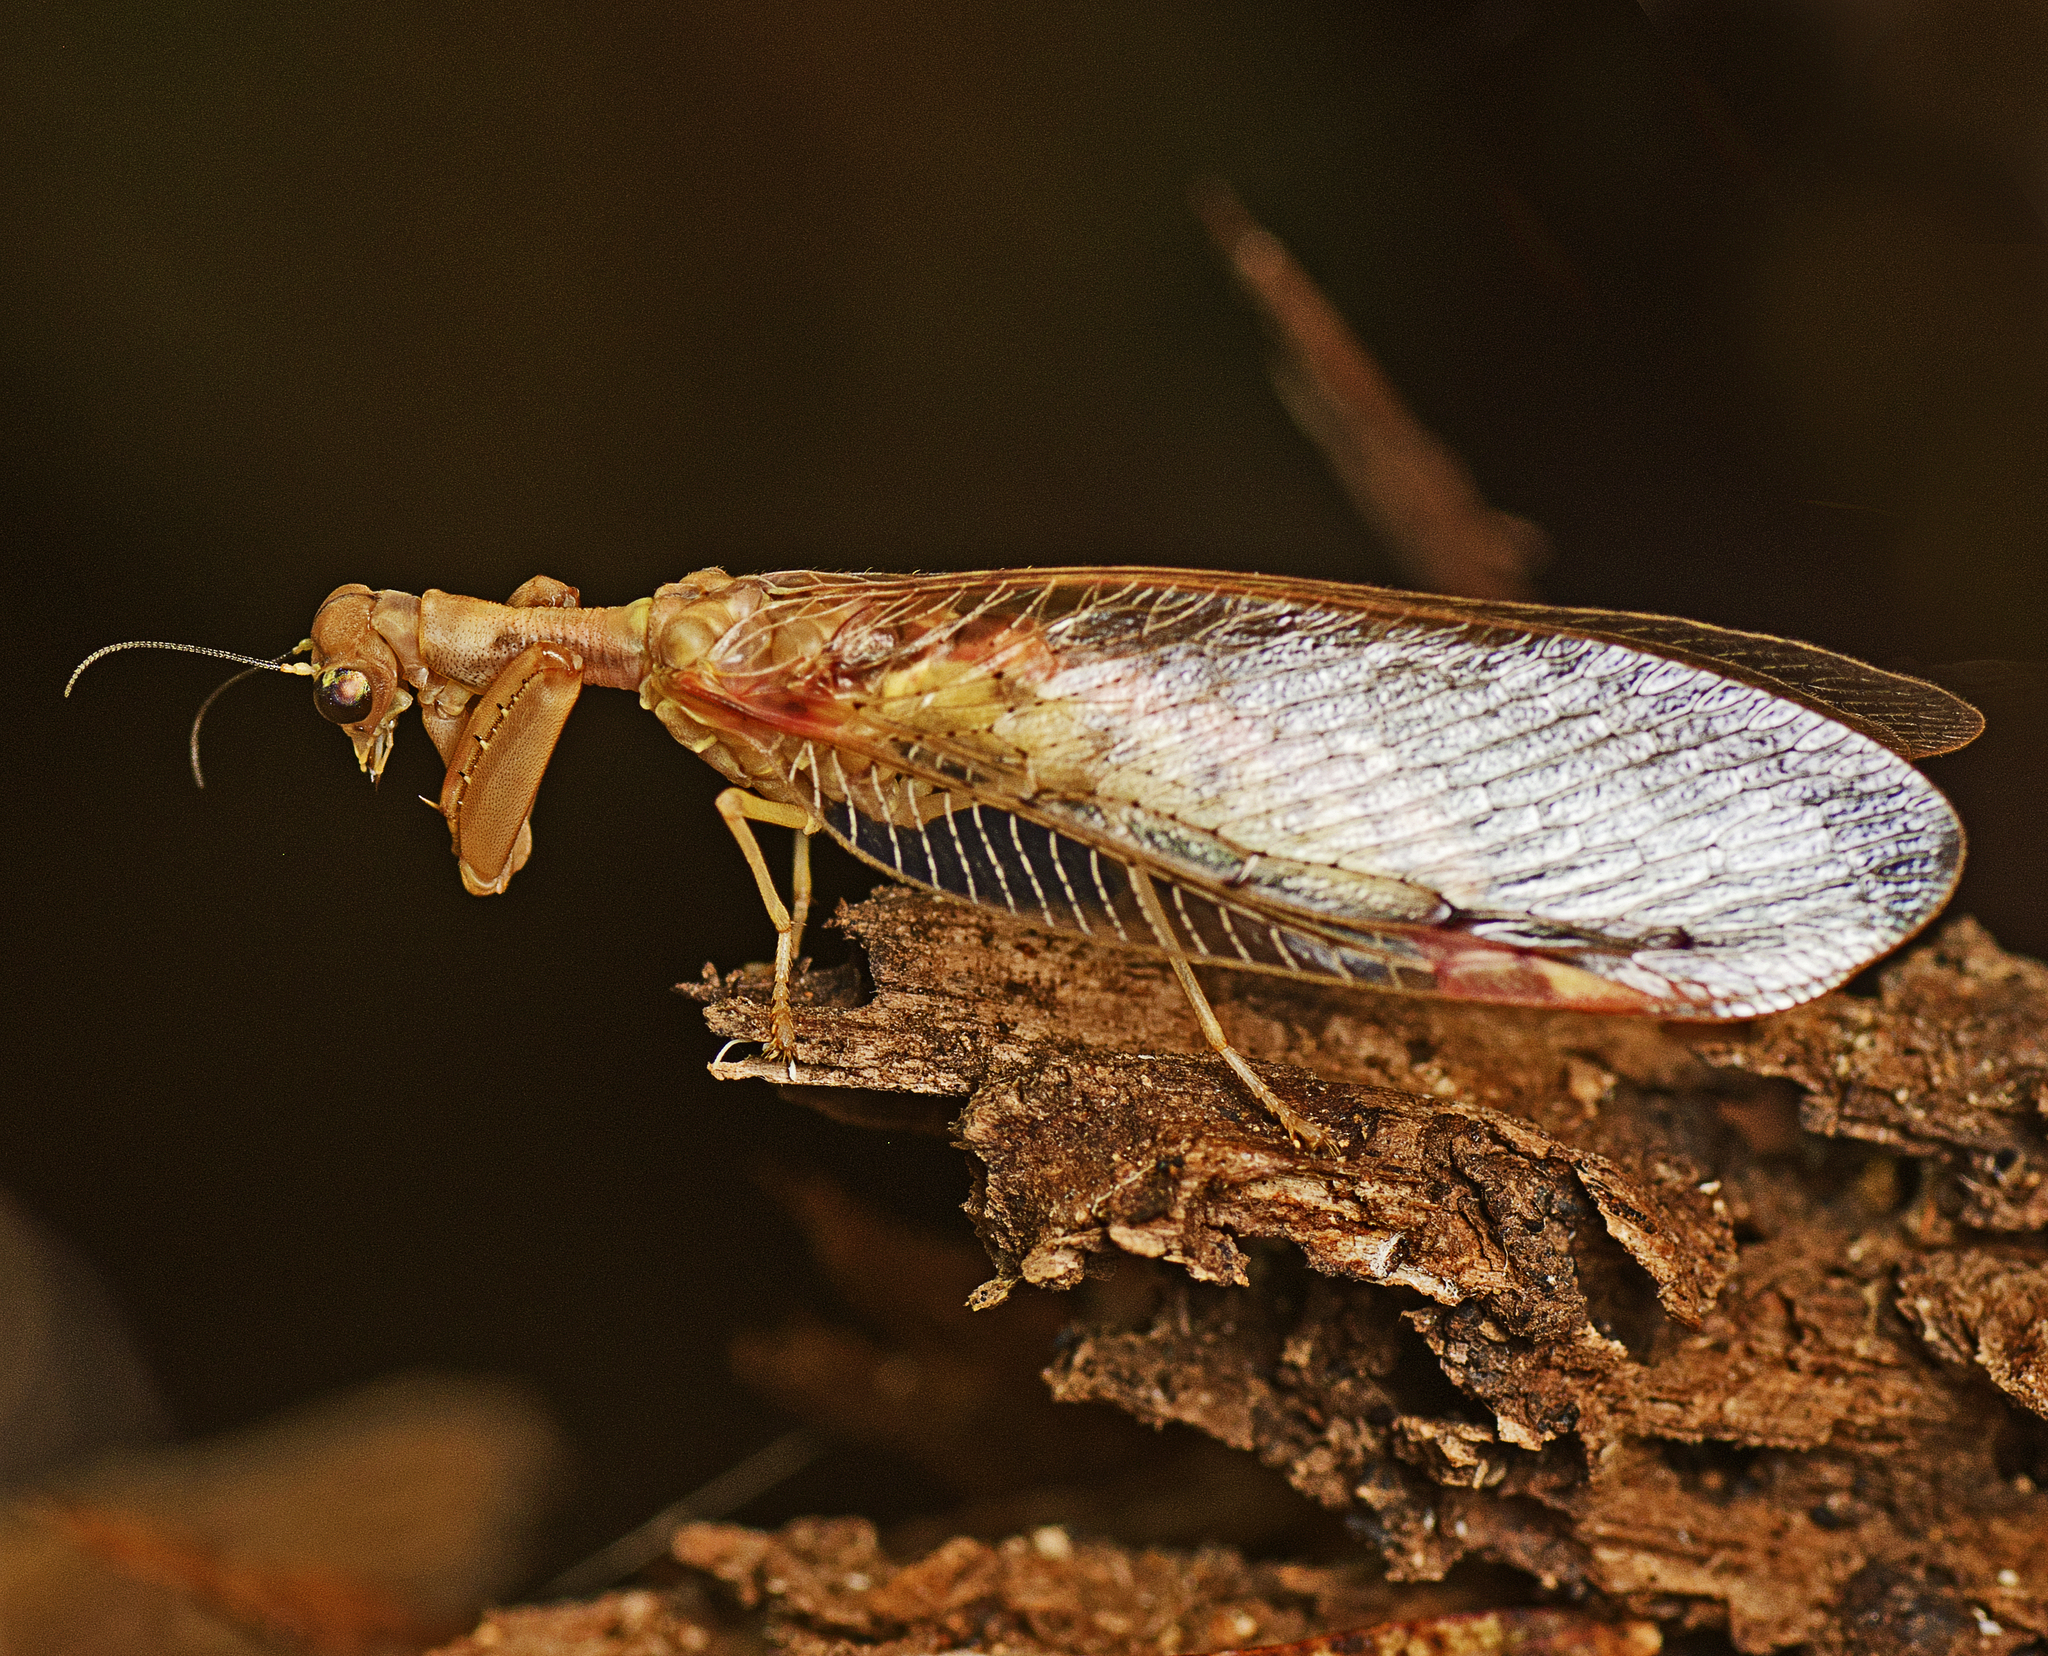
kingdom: Animalia
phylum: Arthropoda
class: Insecta
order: Neuroptera
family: Mantispidae
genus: Ditaxis
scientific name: Ditaxis biseriata
